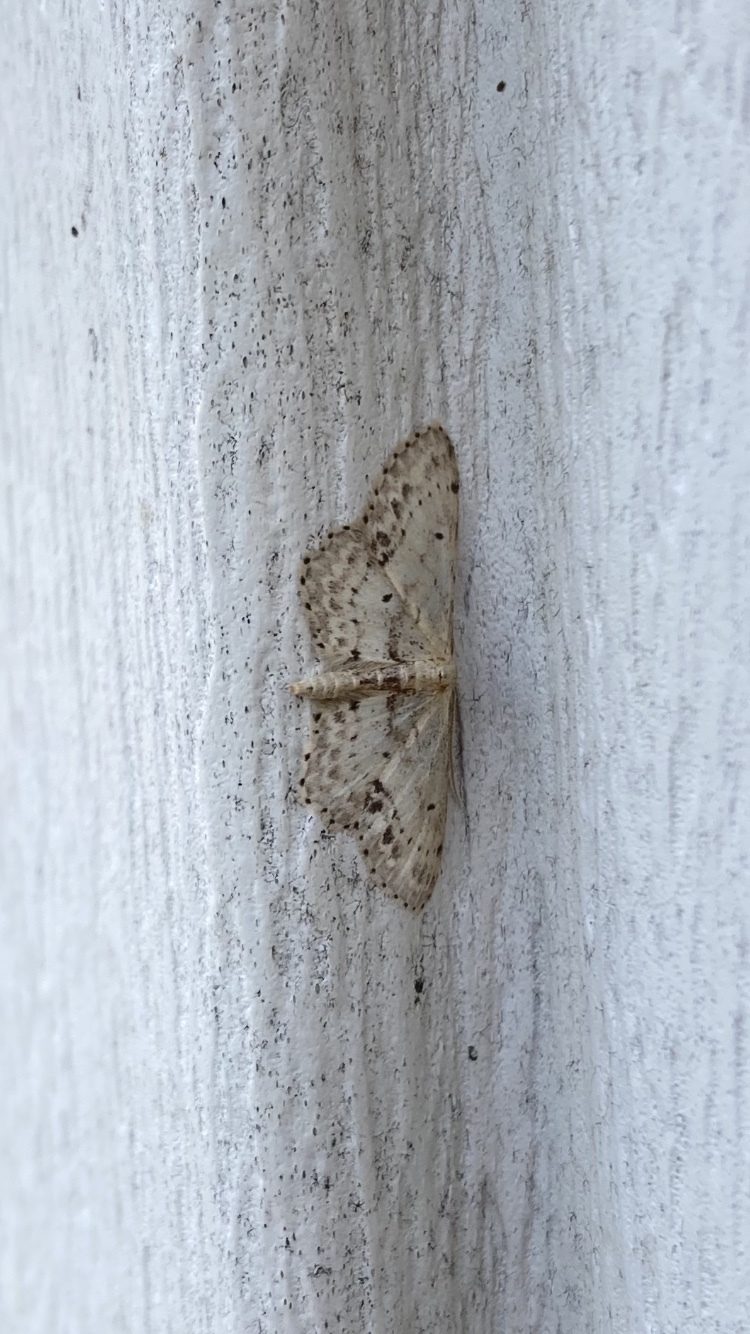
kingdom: Animalia
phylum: Arthropoda
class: Insecta
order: Lepidoptera
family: Geometridae
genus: Idaea
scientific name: Idaea dimidiata
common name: Single-dotted wave
